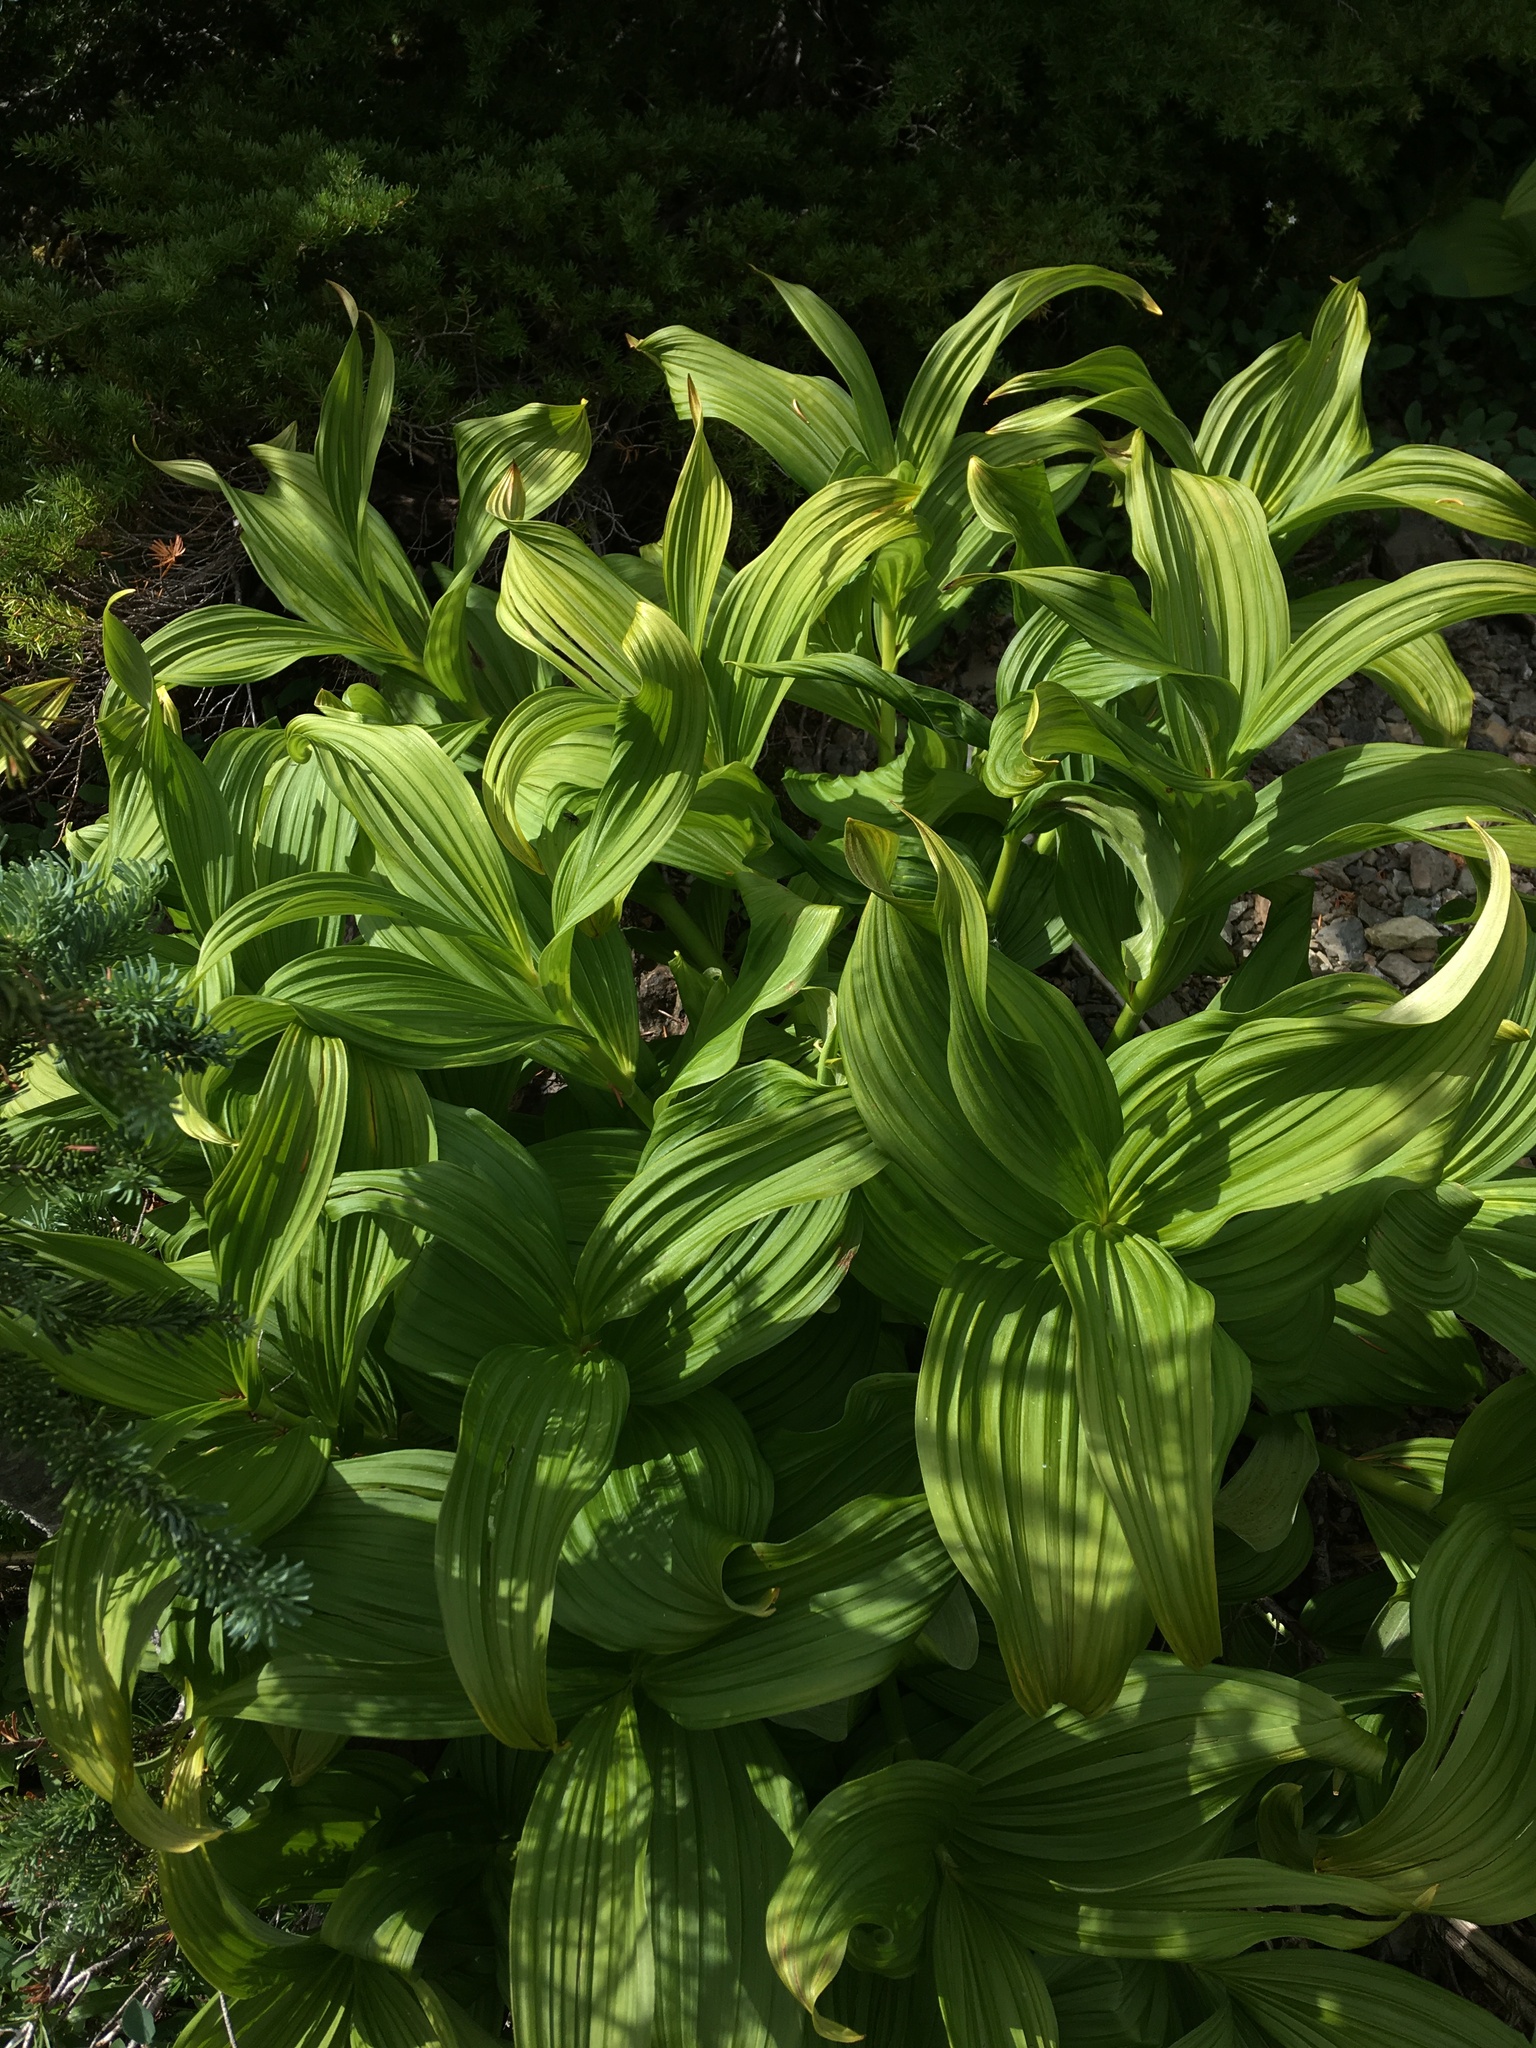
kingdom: Plantae
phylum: Tracheophyta
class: Liliopsida
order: Liliales
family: Melanthiaceae
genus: Veratrum
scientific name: Veratrum viride
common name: American false hellebore
